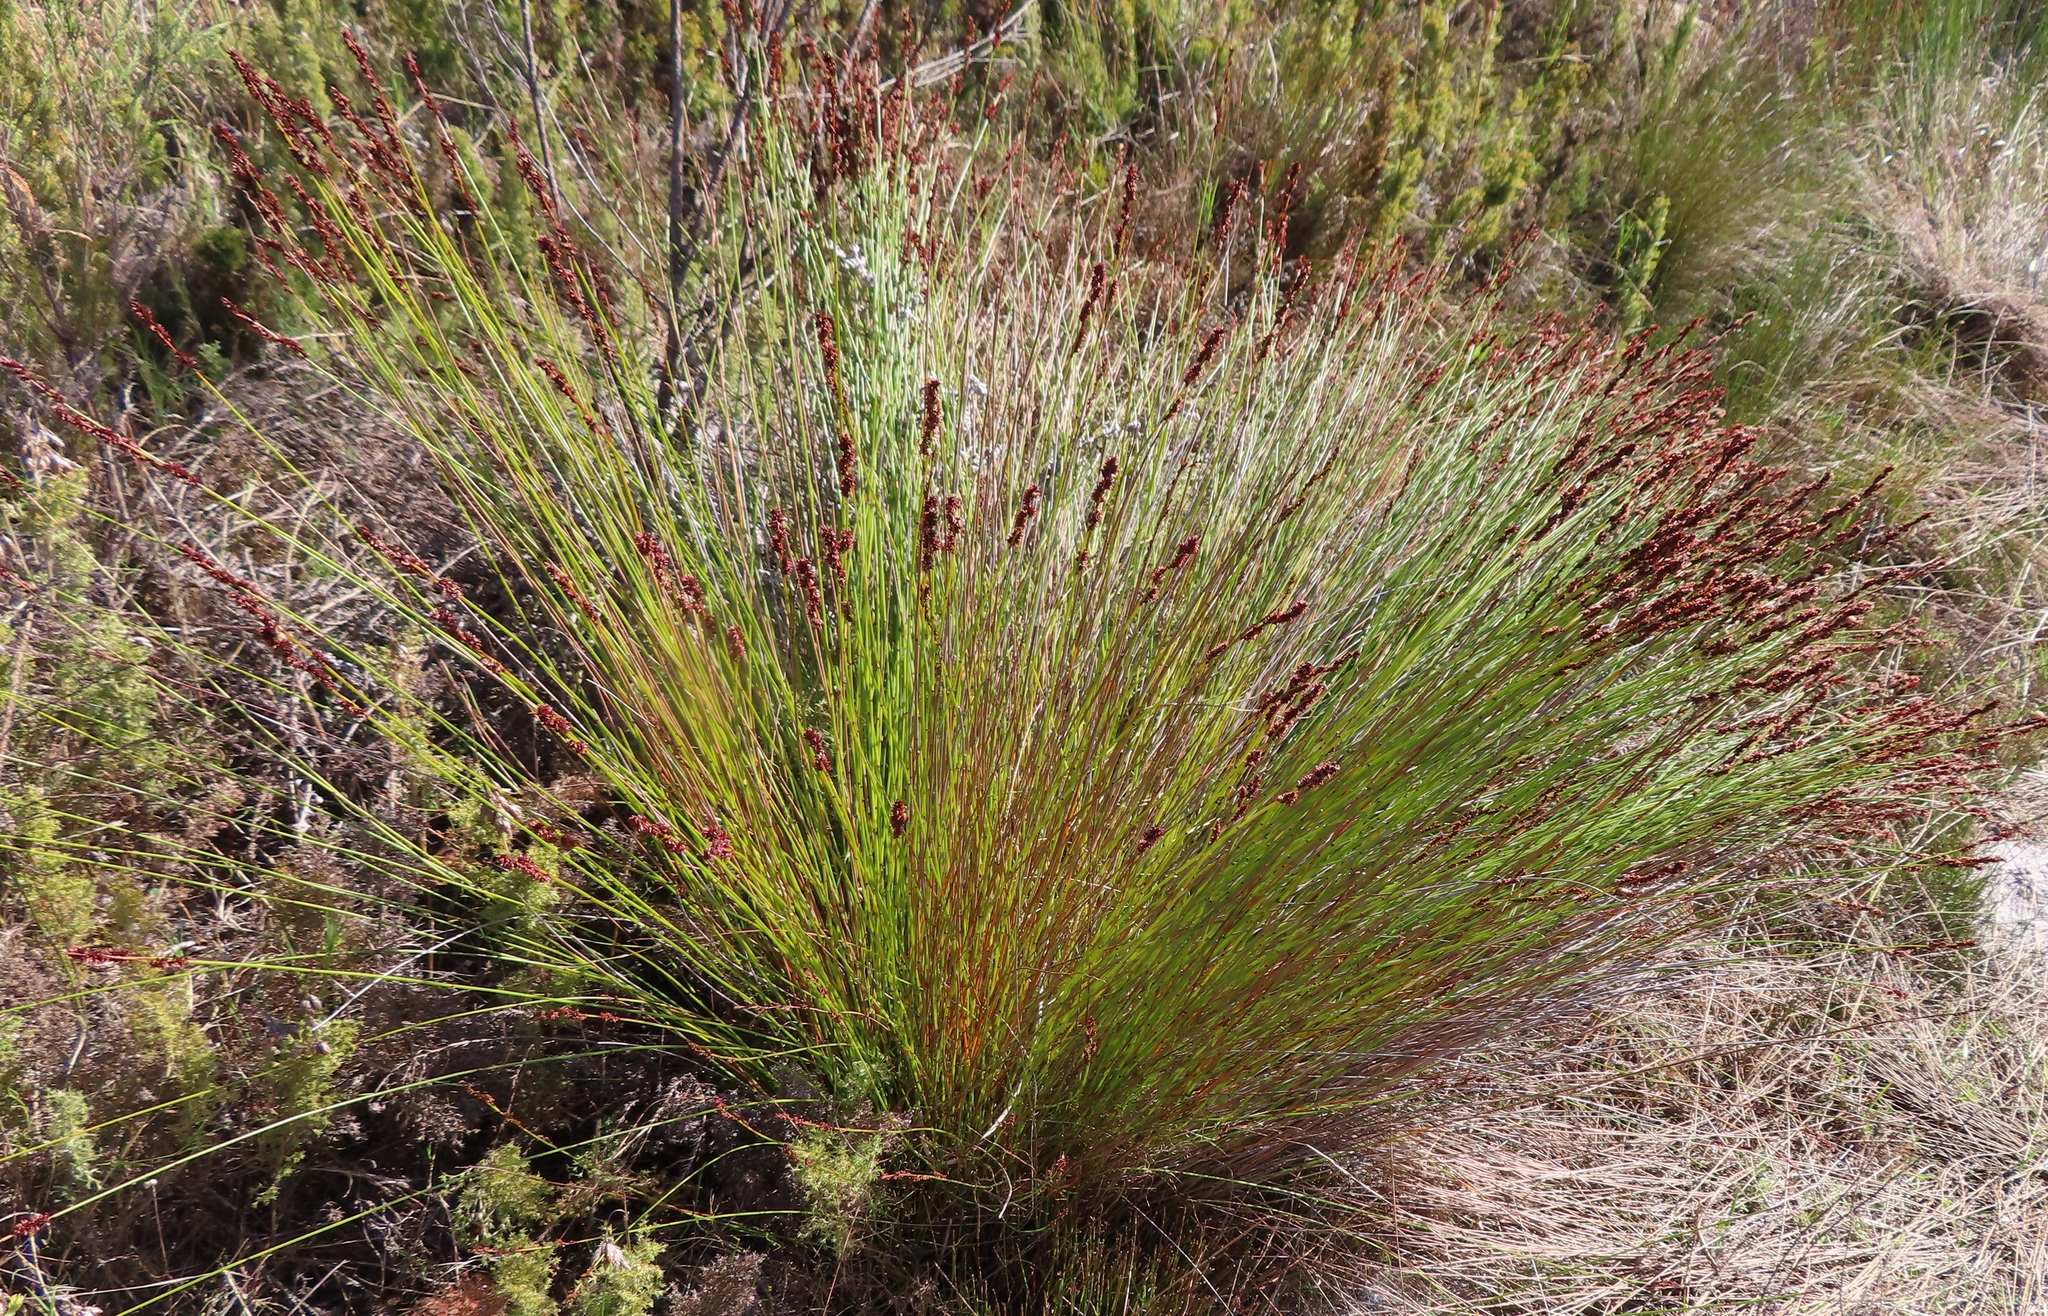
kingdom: Plantae
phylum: Tracheophyta
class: Liliopsida
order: Poales
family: Restionaceae
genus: Elegia
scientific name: Elegia tectorum
